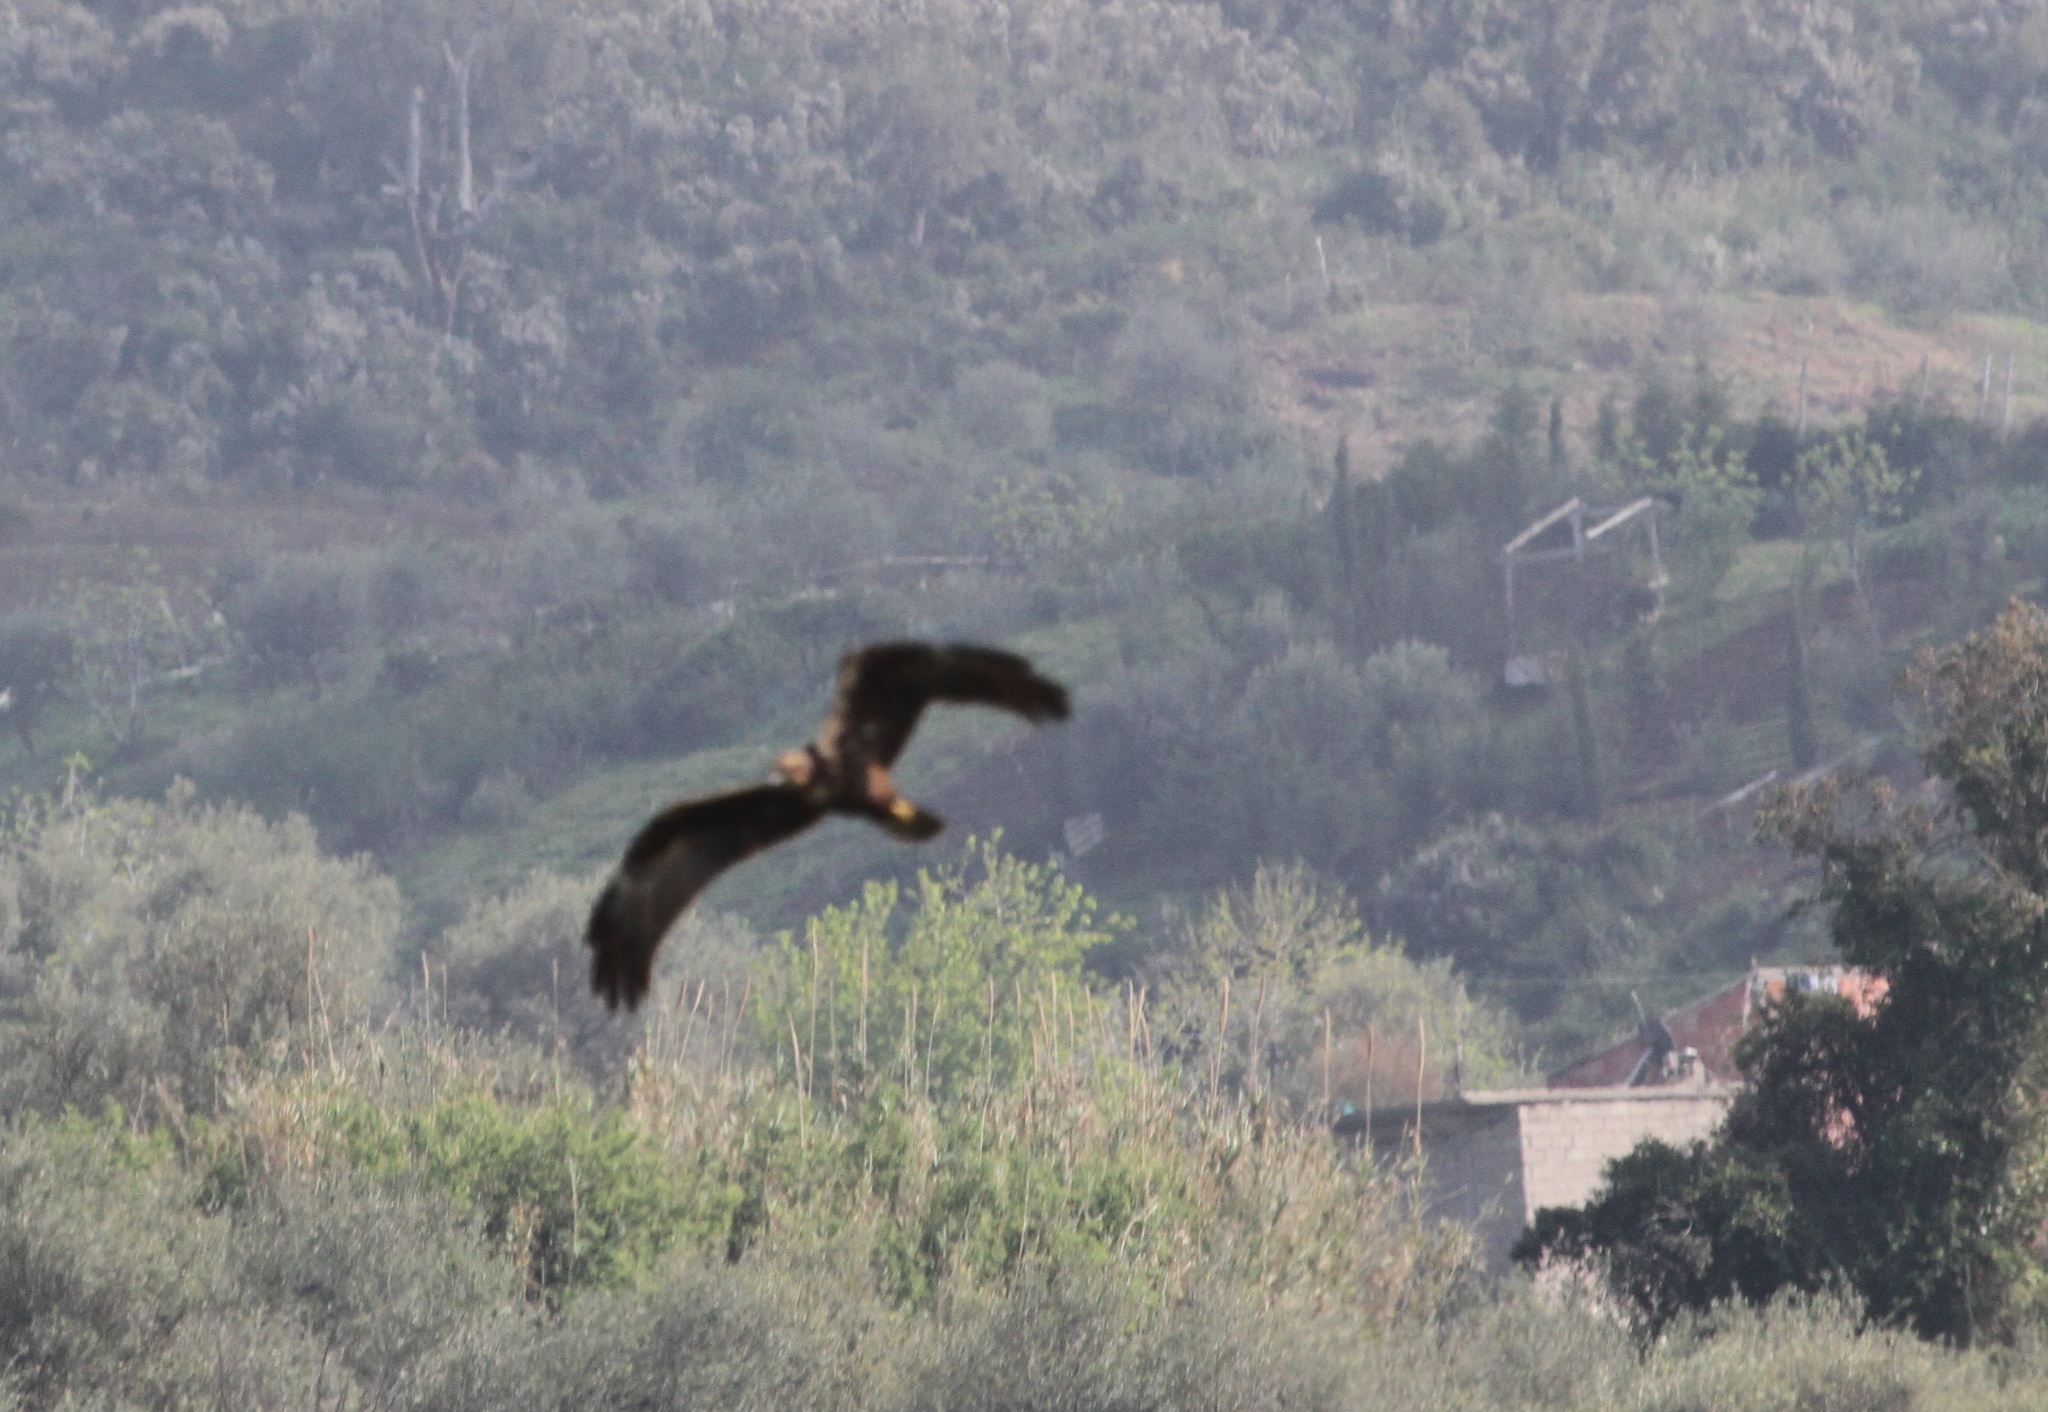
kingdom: Animalia
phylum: Chordata
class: Aves
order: Accipitriformes
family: Accipitridae
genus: Circus
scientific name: Circus aeruginosus
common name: Western marsh harrier
